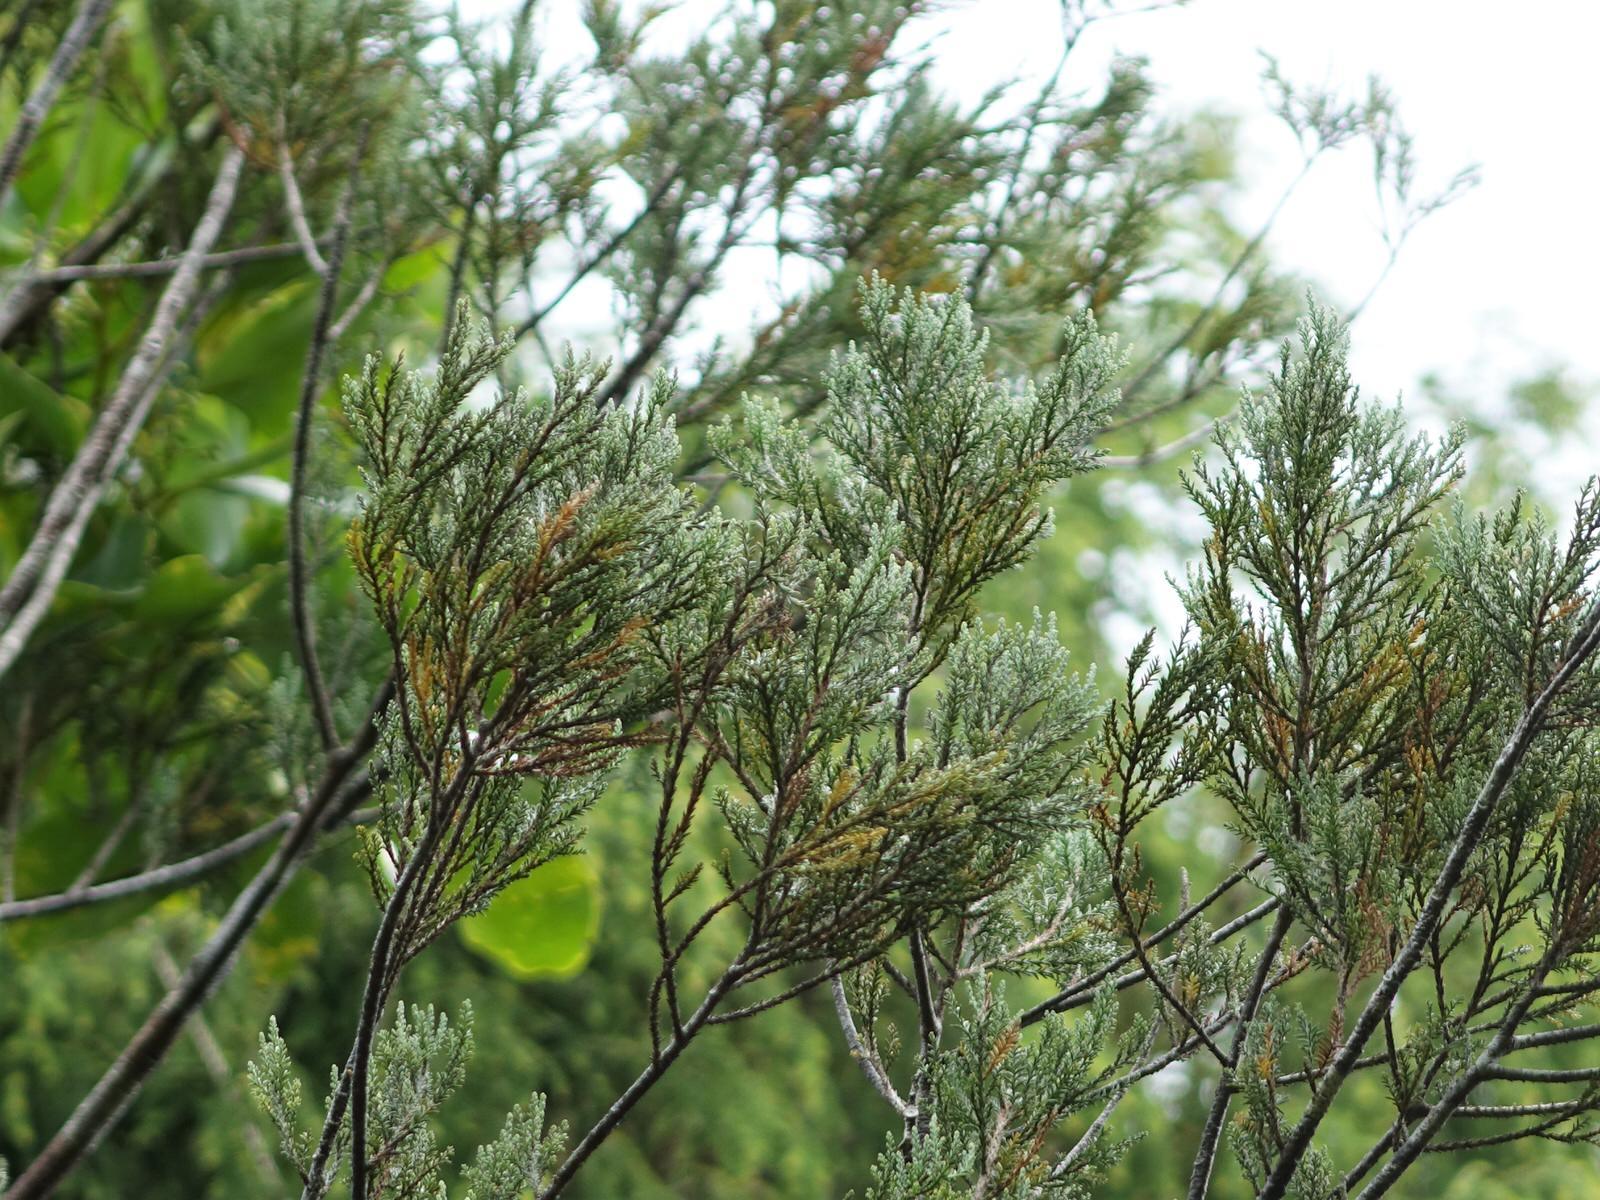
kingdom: Plantae
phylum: Tracheophyta
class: Pinopsida
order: Pinales
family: Podocarpaceae
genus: Dacrycarpus
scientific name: Dacrycarpus dacrydioides
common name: White pine
